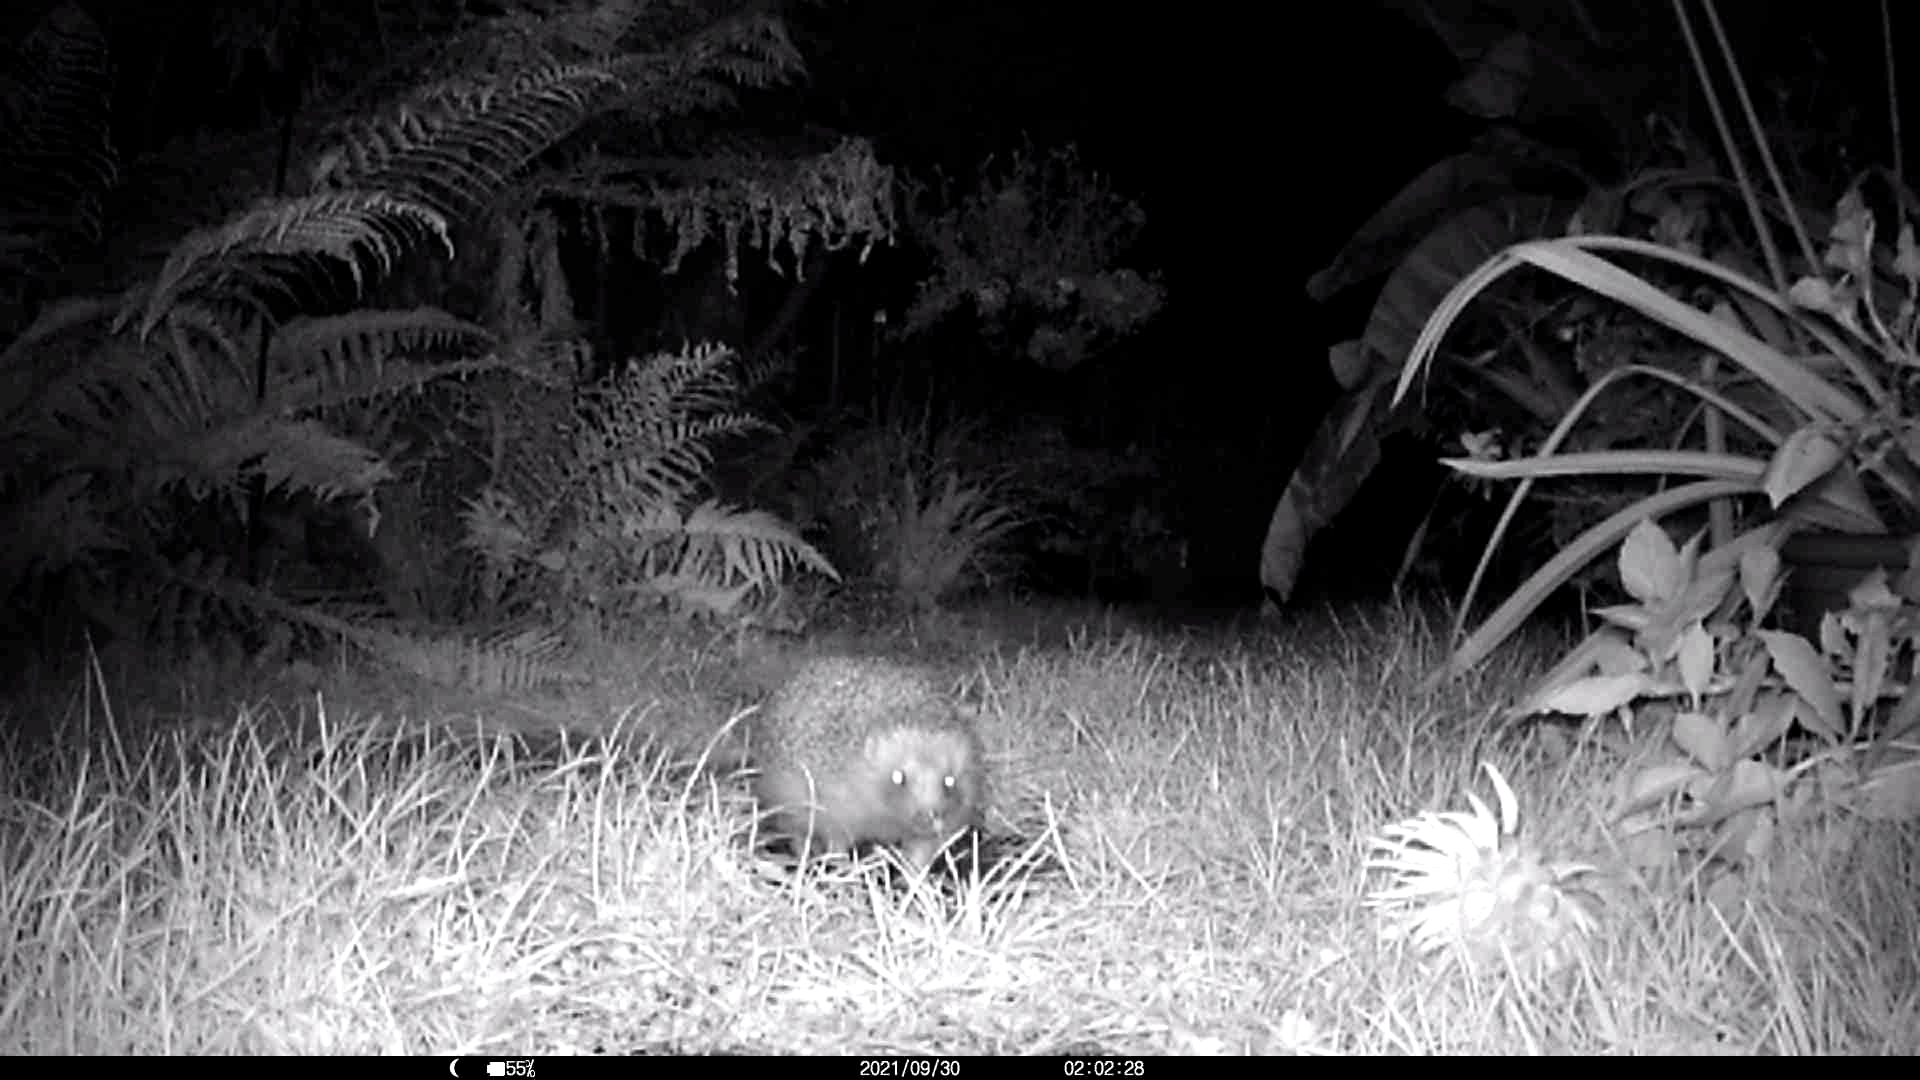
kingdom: Animalia
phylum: Chordata
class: Mammalia
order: Erinaceomorpha
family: Erinaceidae
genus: Erinaceus
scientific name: Erinaceus europaeus
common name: West european hedgehog
